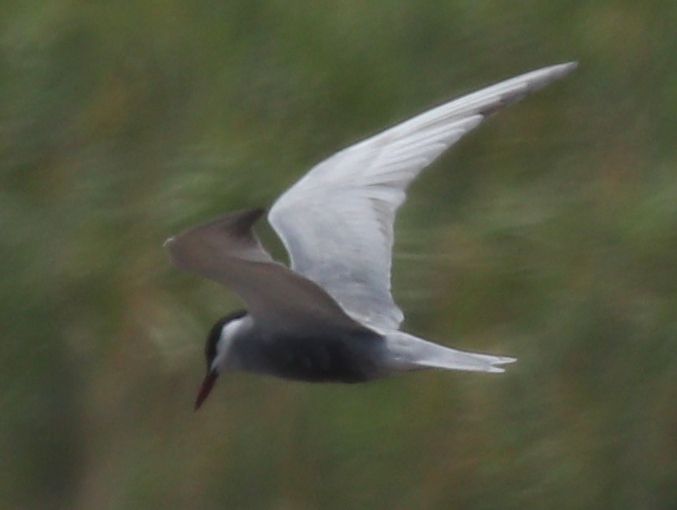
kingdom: Animalia
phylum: Chordata
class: Aves
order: Charadriiformes
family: Laridae
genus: Chlidonias
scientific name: Chlidonias hybrida
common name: Whiskered tern
